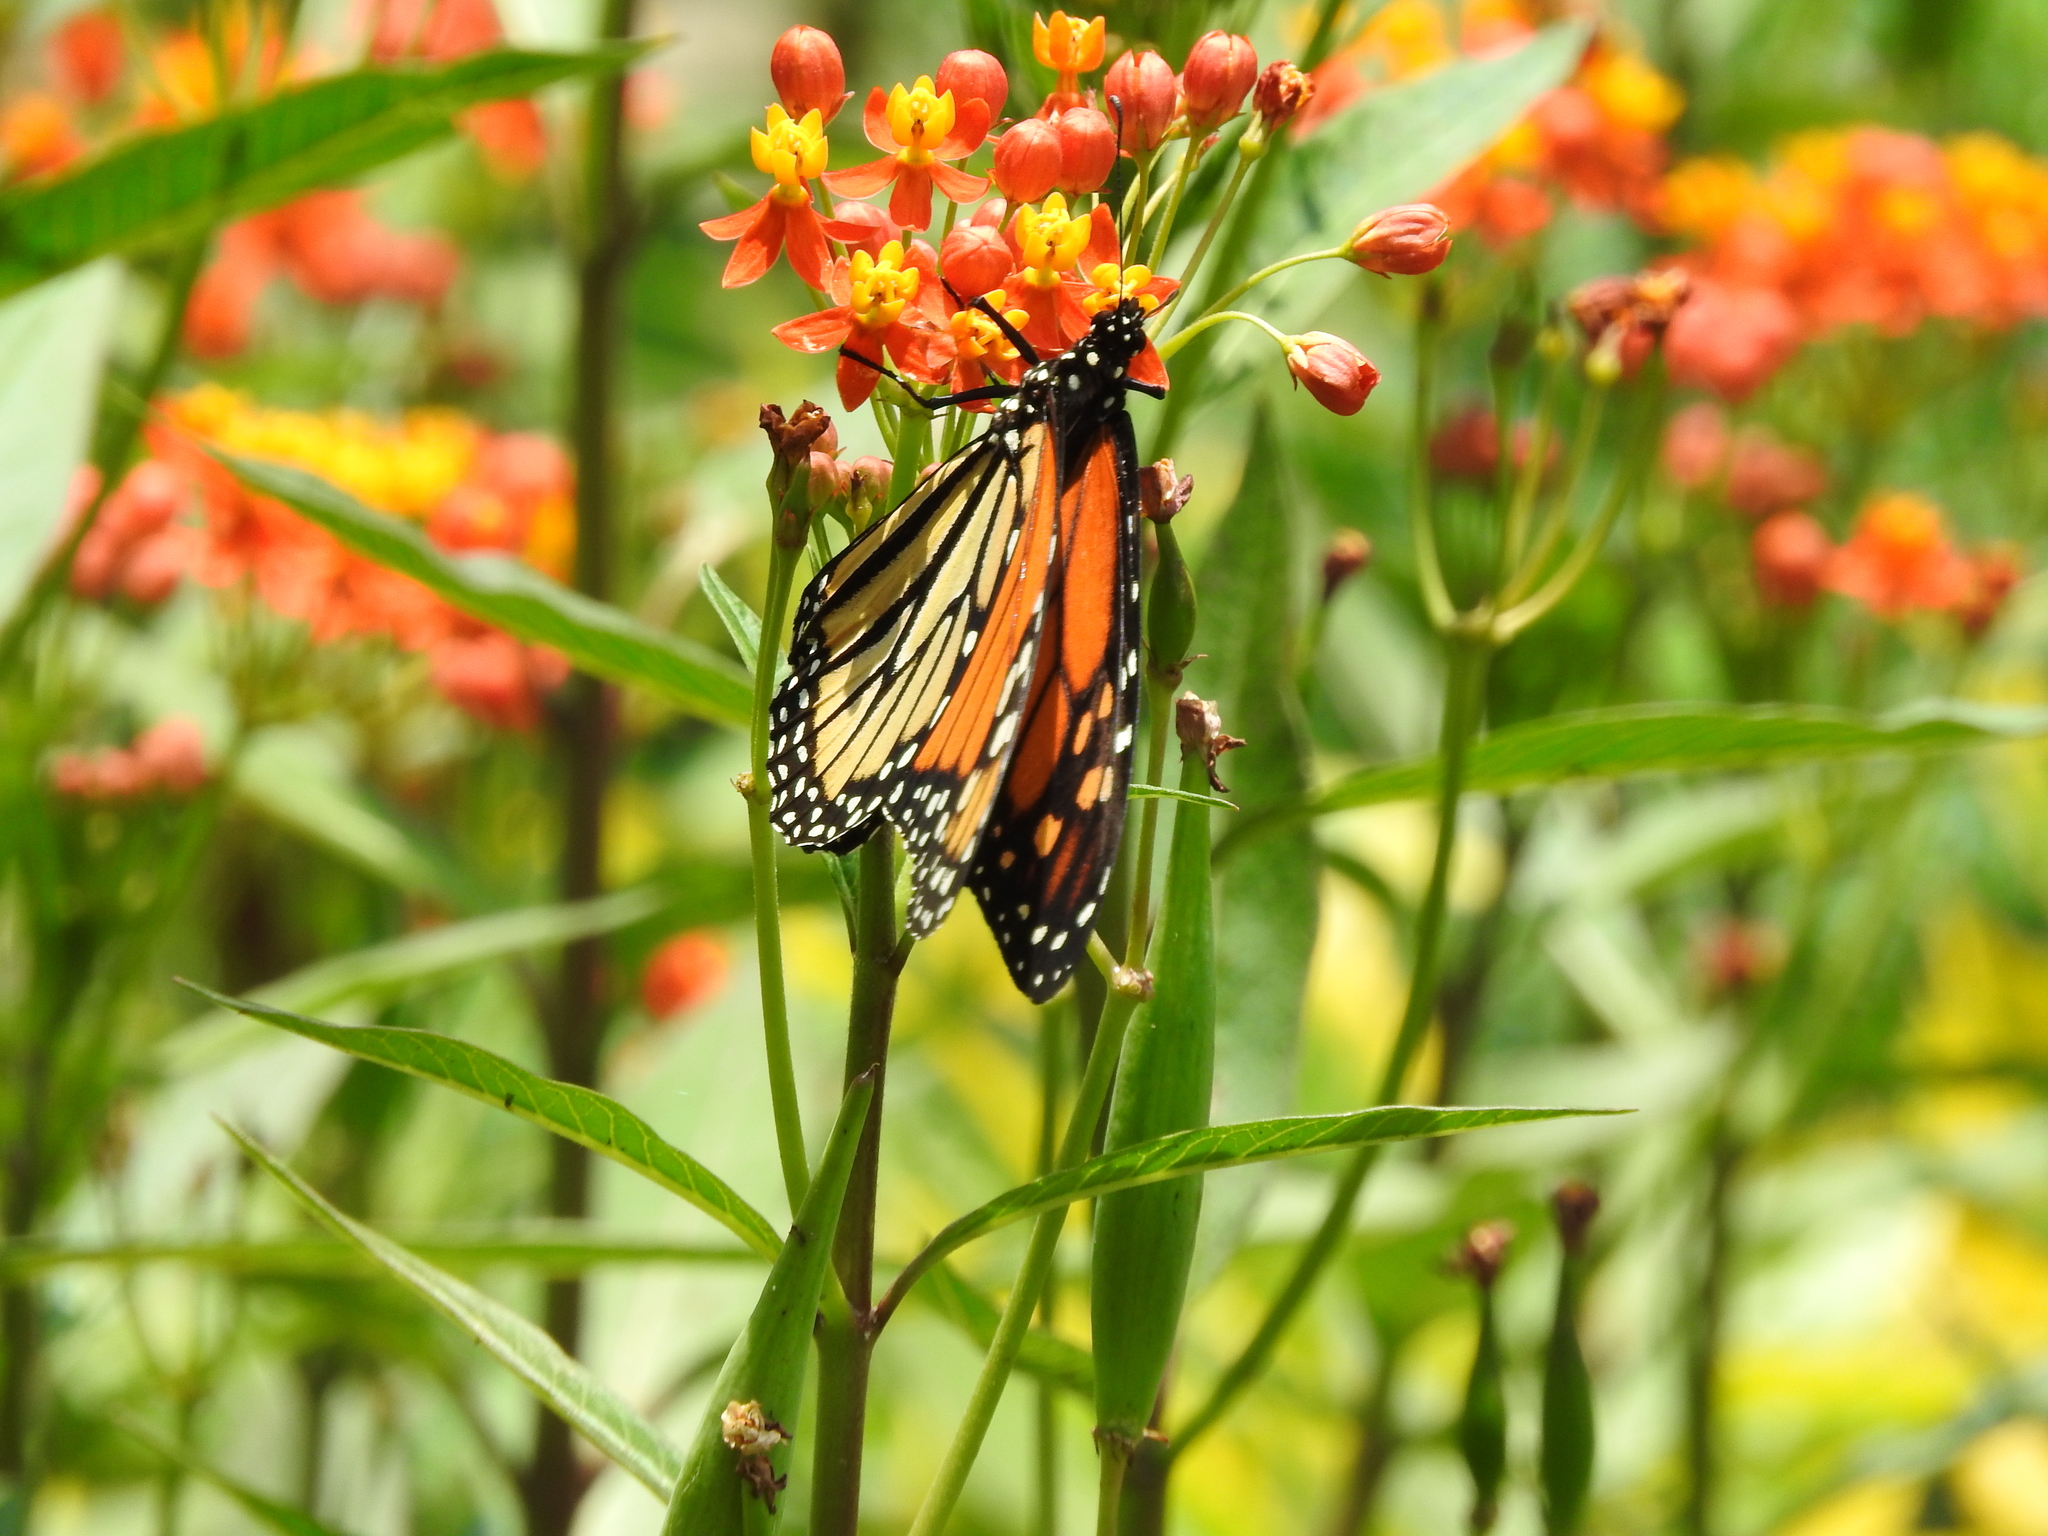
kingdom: Animalia
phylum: Arthropoda
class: Insecta
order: Lepidoptera
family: Nymphalidae
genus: Danaus
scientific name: Danaus plexippus
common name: Monarch
